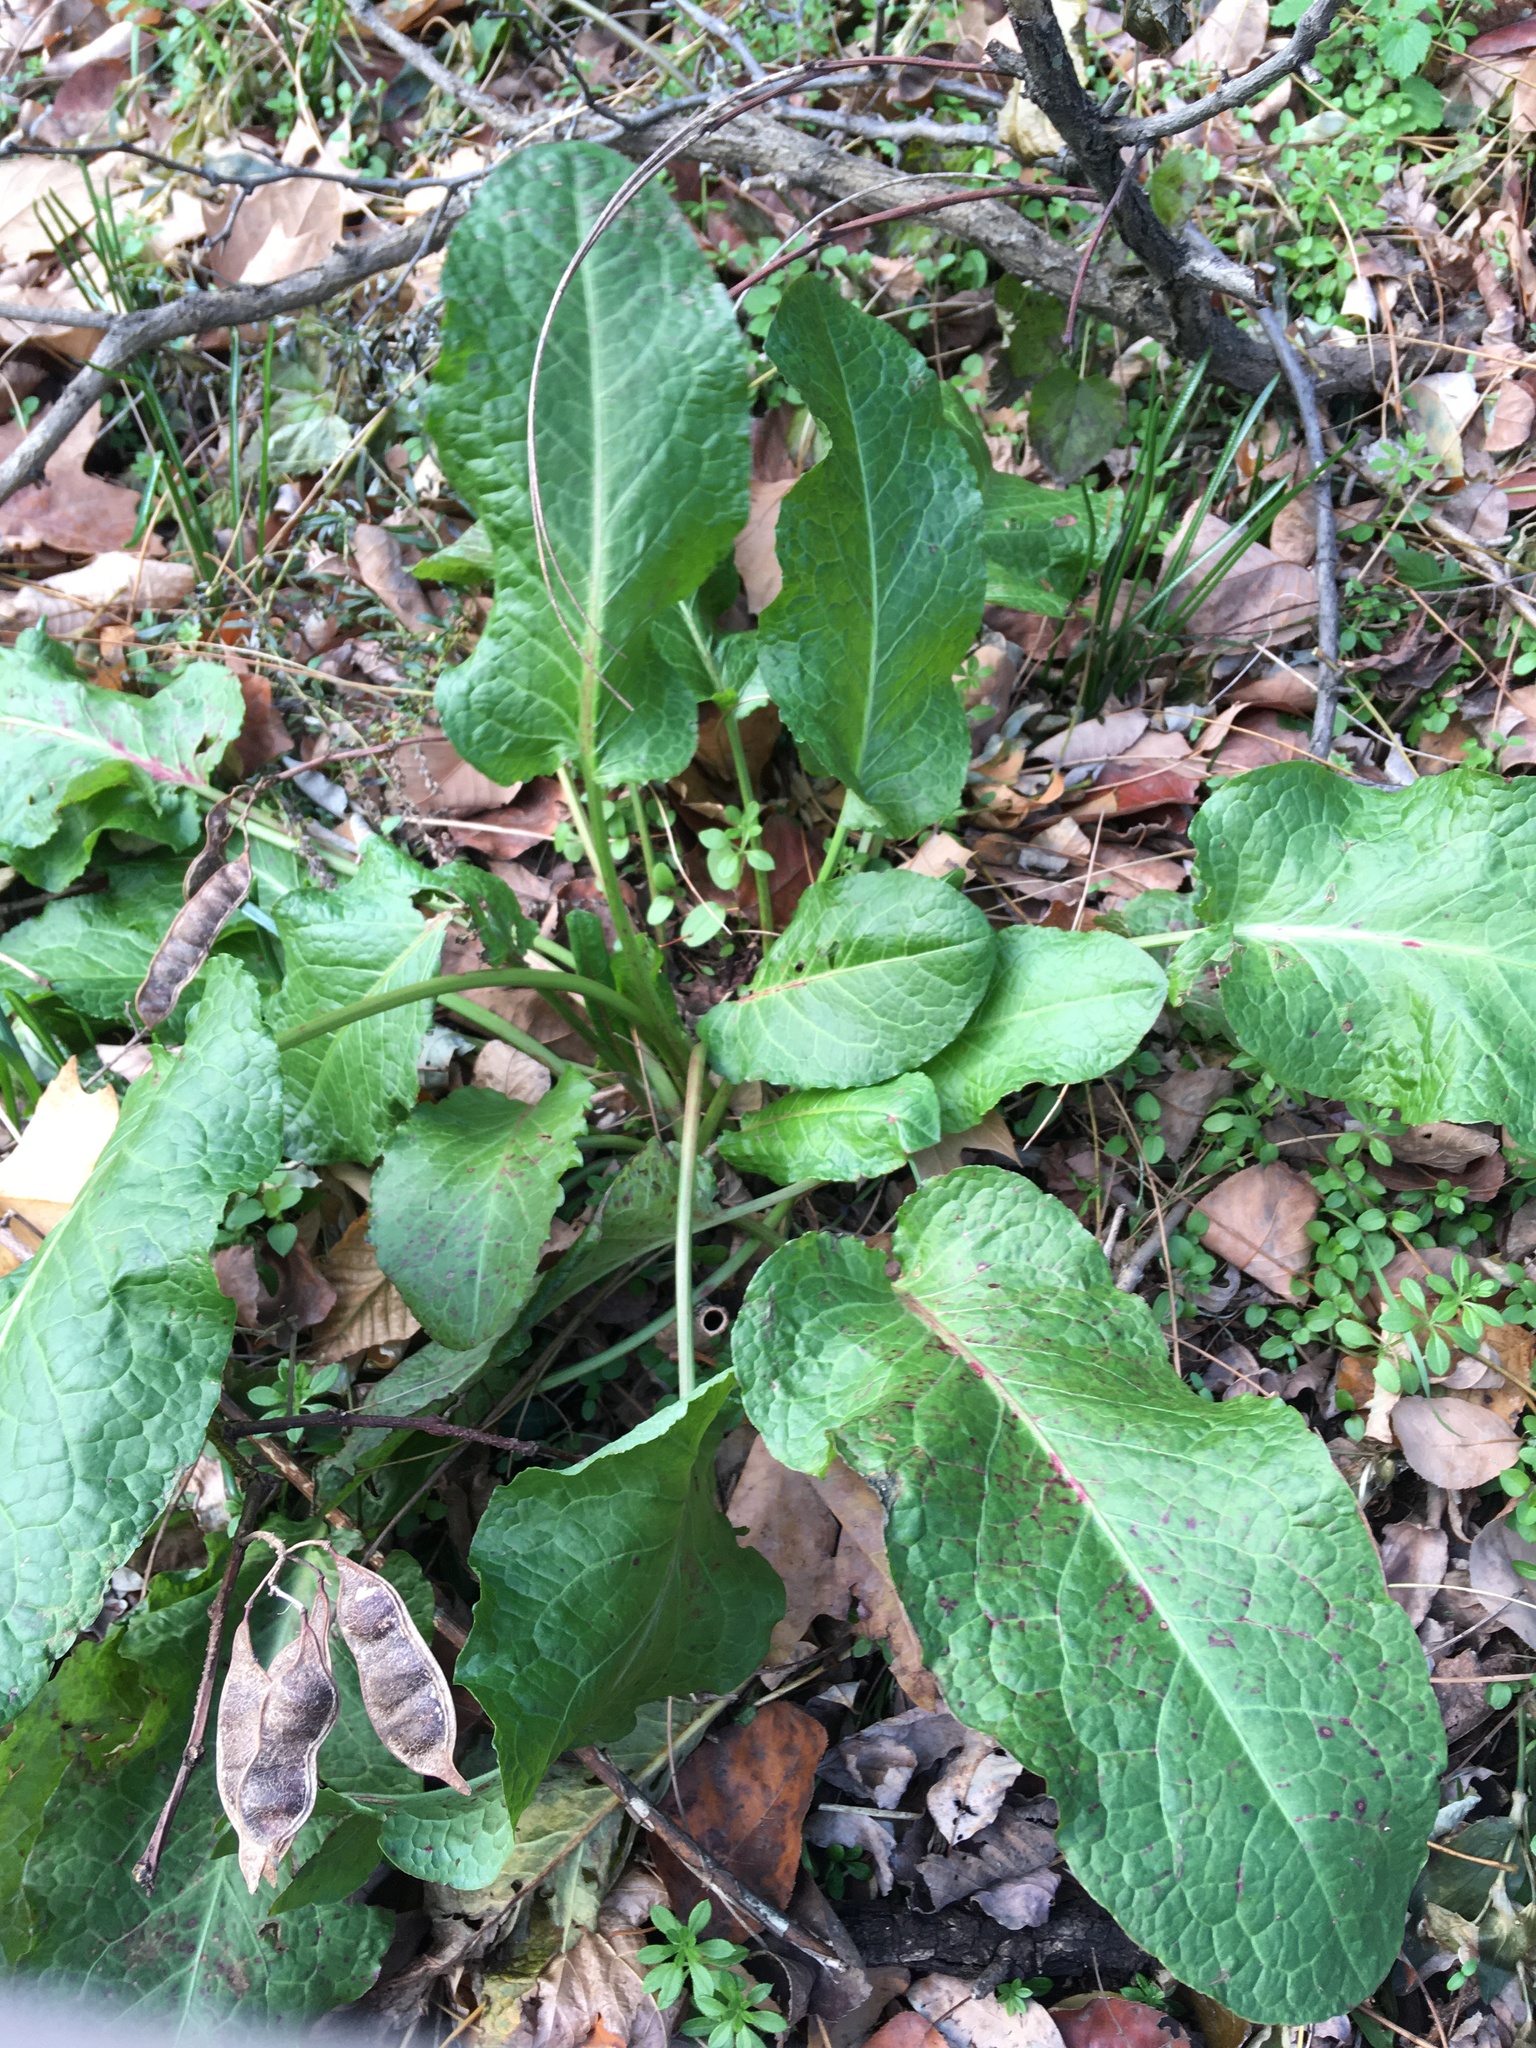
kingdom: Plantae
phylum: Tracheophyta
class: Magnoliopsida
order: Caryophyllales
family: Polygonaceae
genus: Rumex
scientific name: Rumex obtusifolius
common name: Bitter dock
